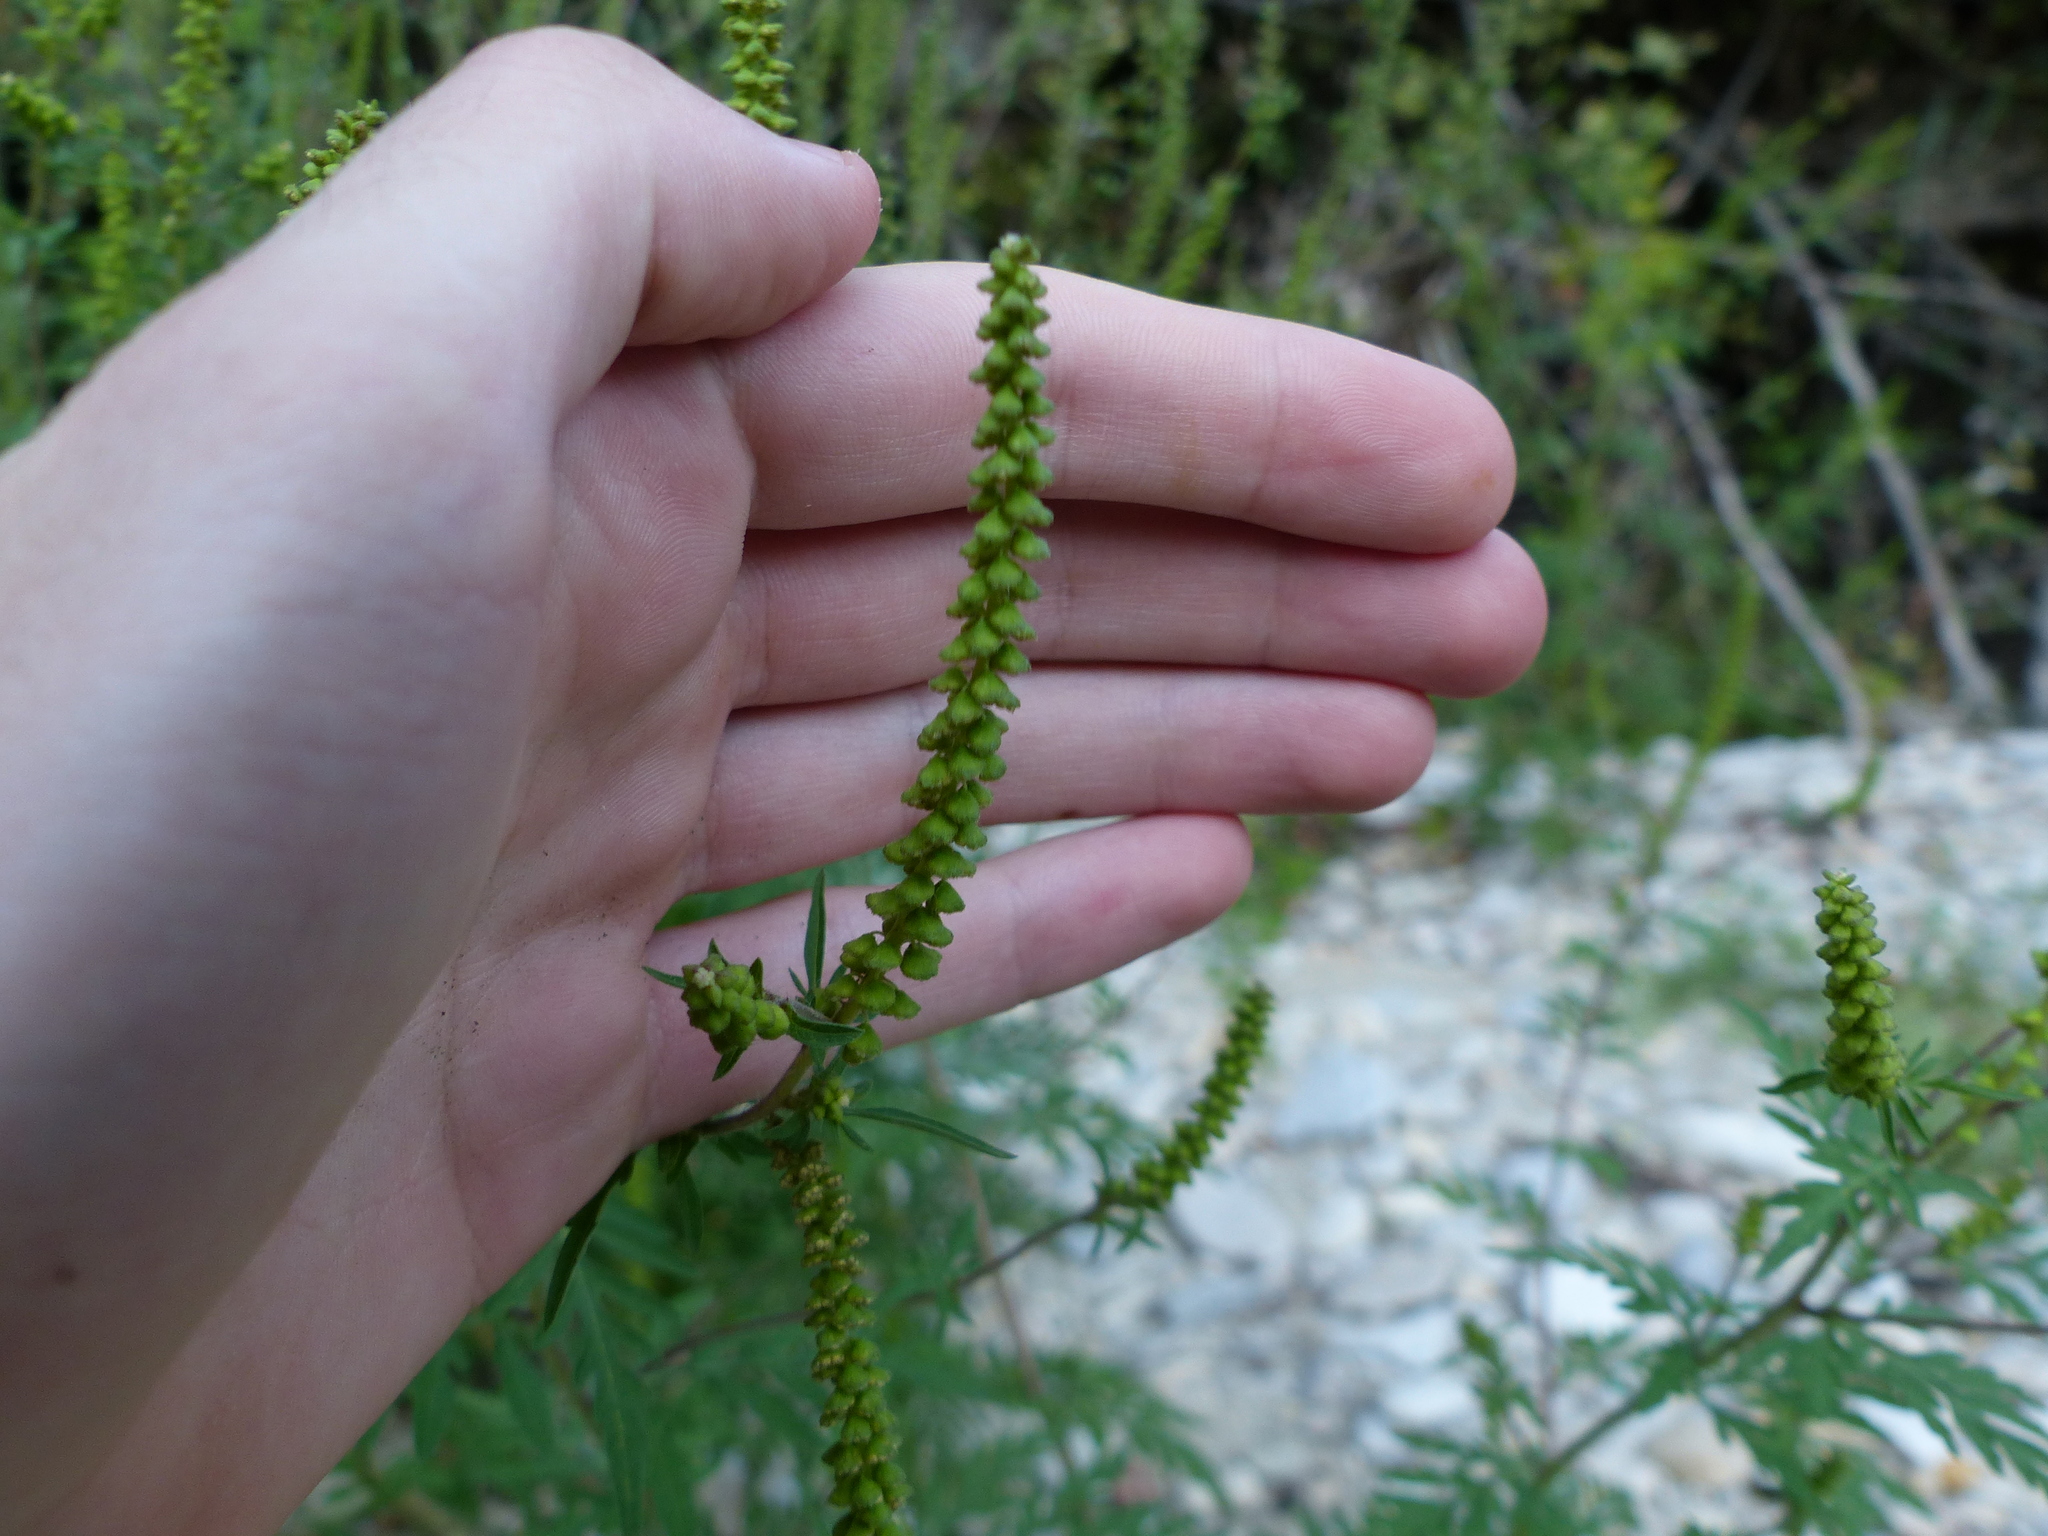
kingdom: Plantae
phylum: Tracheophyta
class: Magnoliopsida
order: Asterales
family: Asteraceae
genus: Ambrosia
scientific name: Ambrosia artemisiifolia
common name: Annual ragweed
